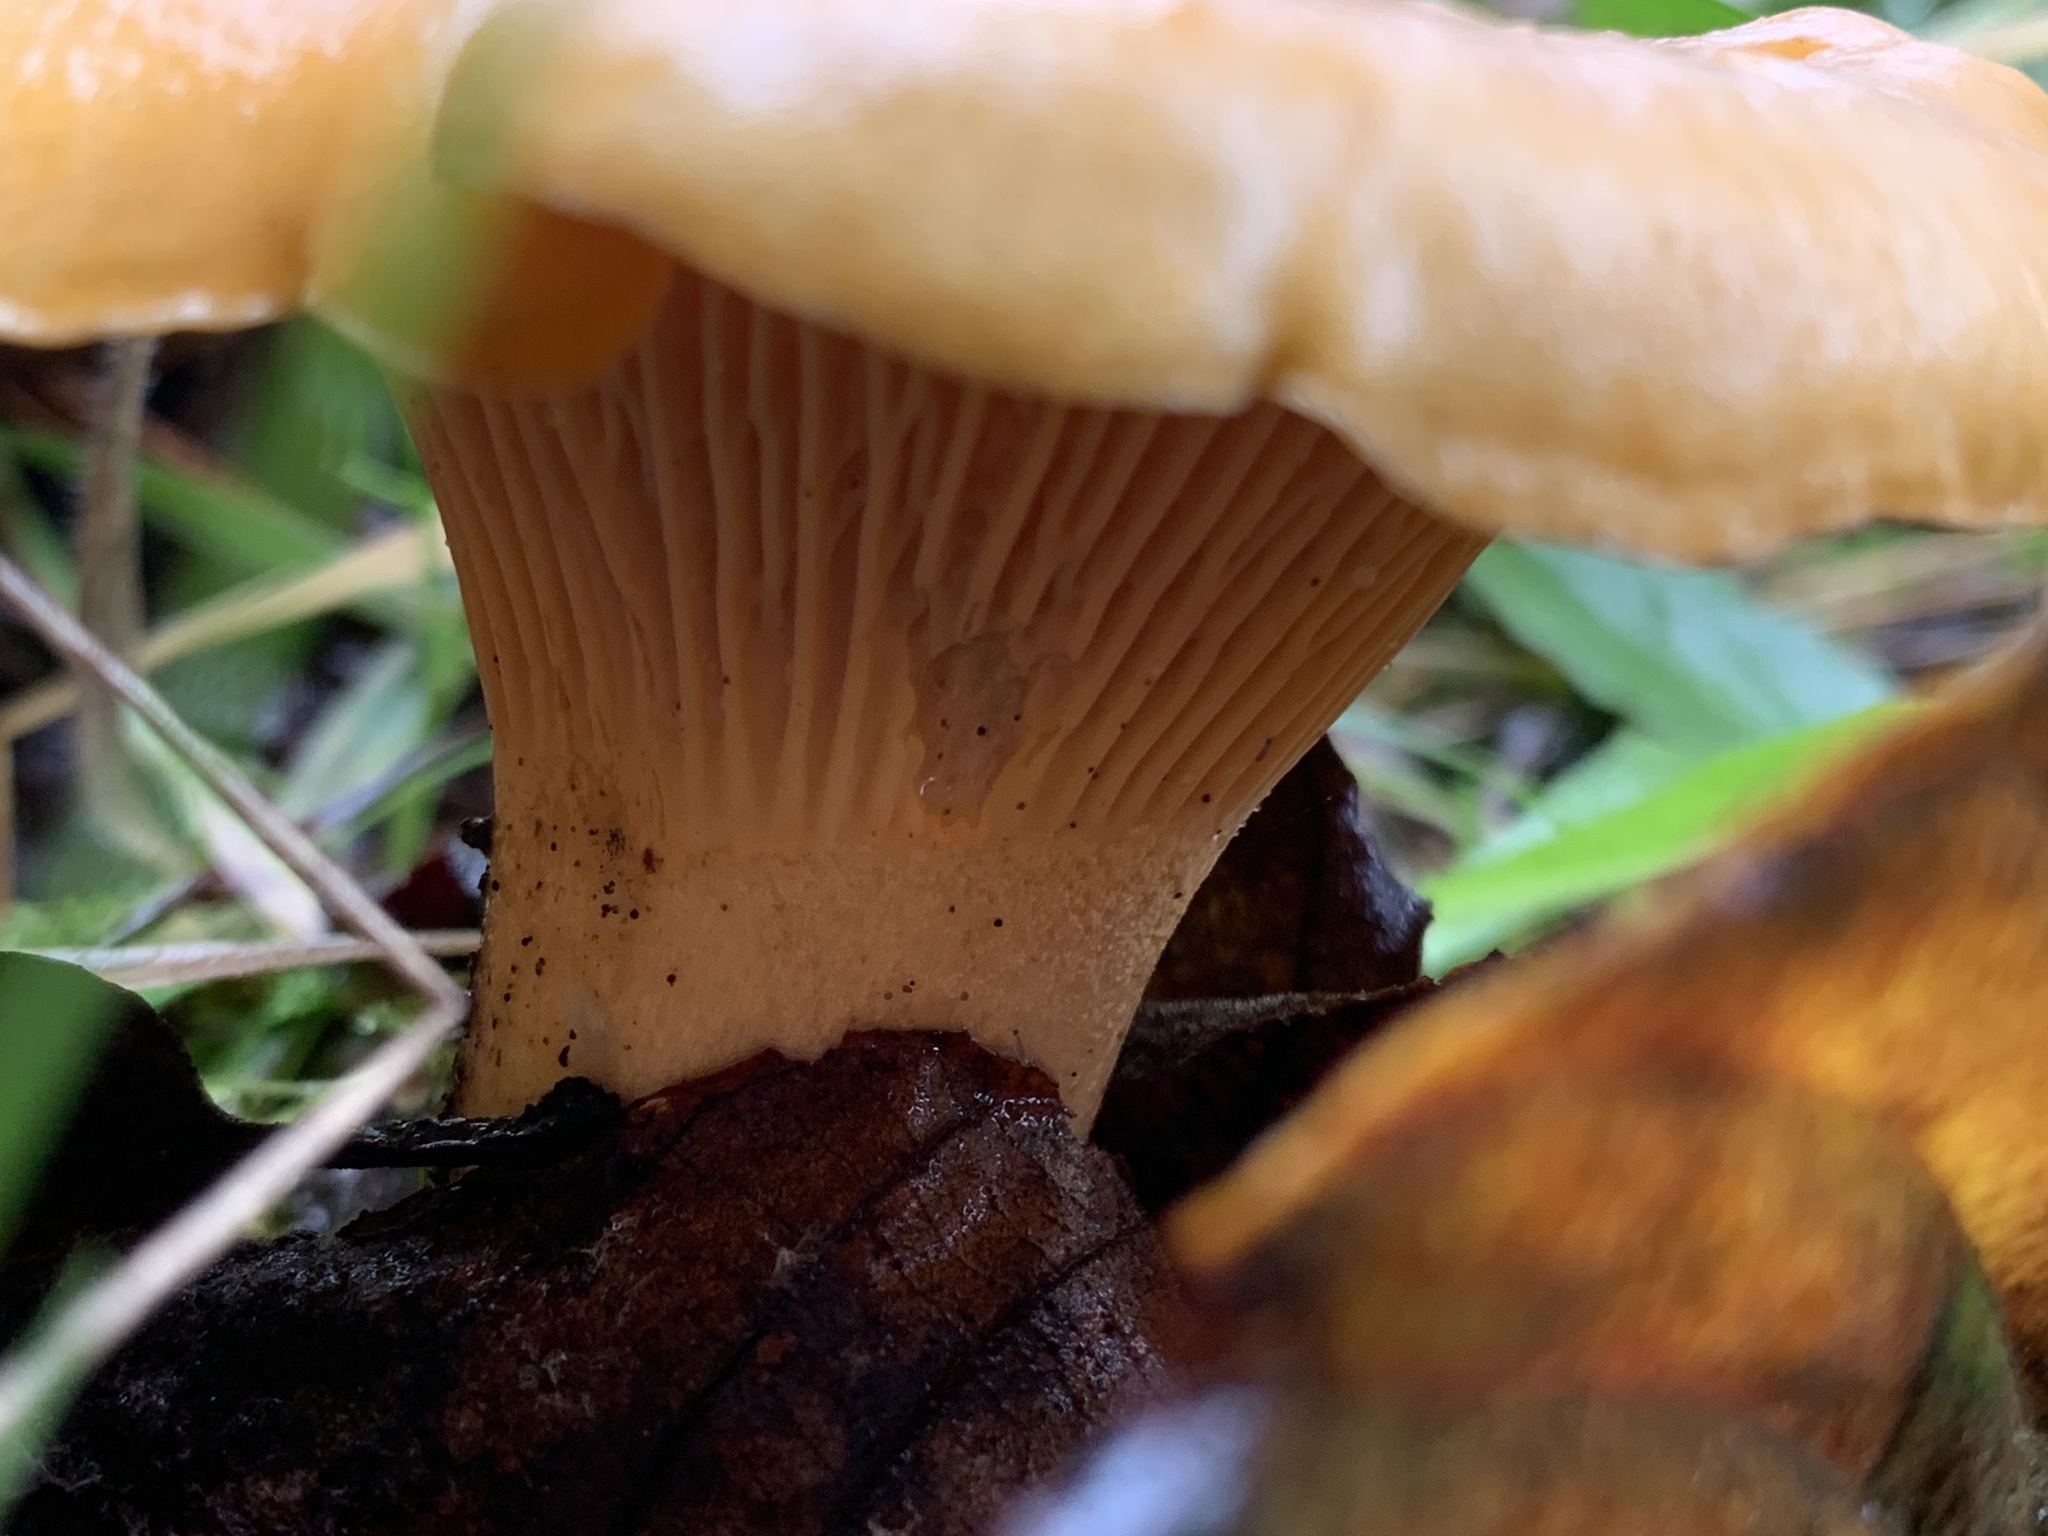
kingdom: Fungi
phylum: Basidiomycota
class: Agaricomycetes
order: Cantharellales
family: Hydnaceae
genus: Cantharellus
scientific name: Cantharellus formosus
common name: Pacific golden chanterelle
